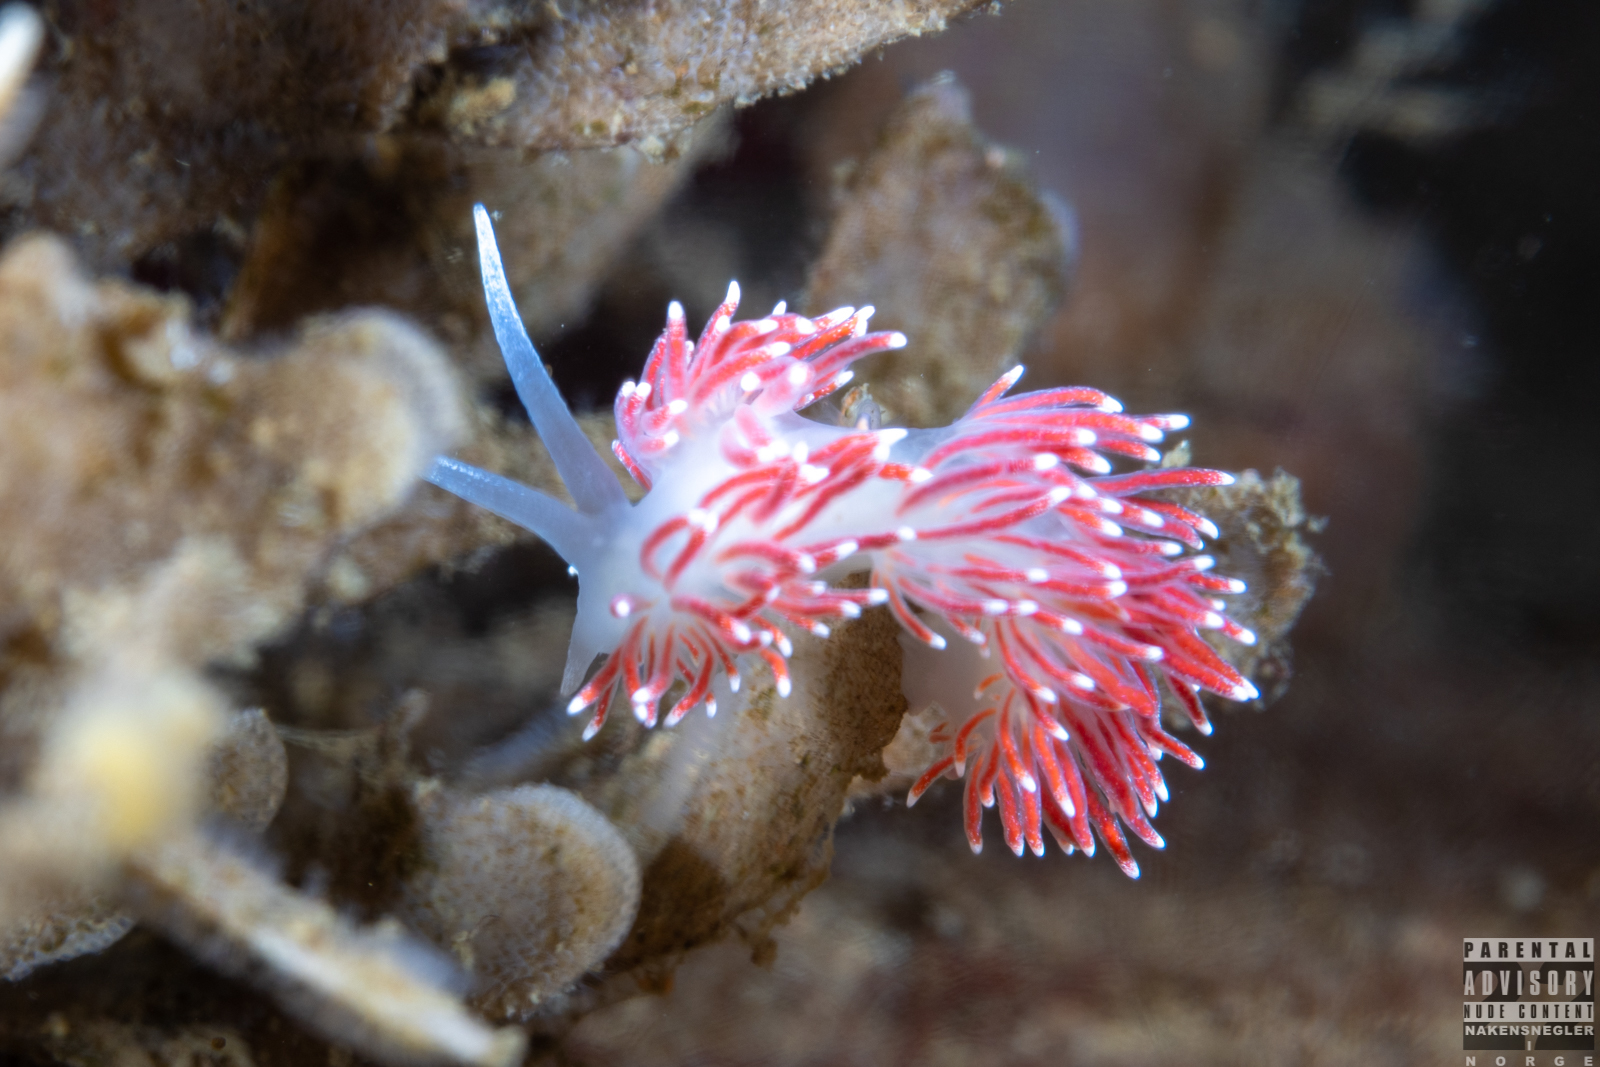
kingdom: Animalia
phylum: Mollusca
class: Gastropoda
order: Nudibranchia
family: Flabellinidae
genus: Carronella
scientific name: Carronella pellucida
